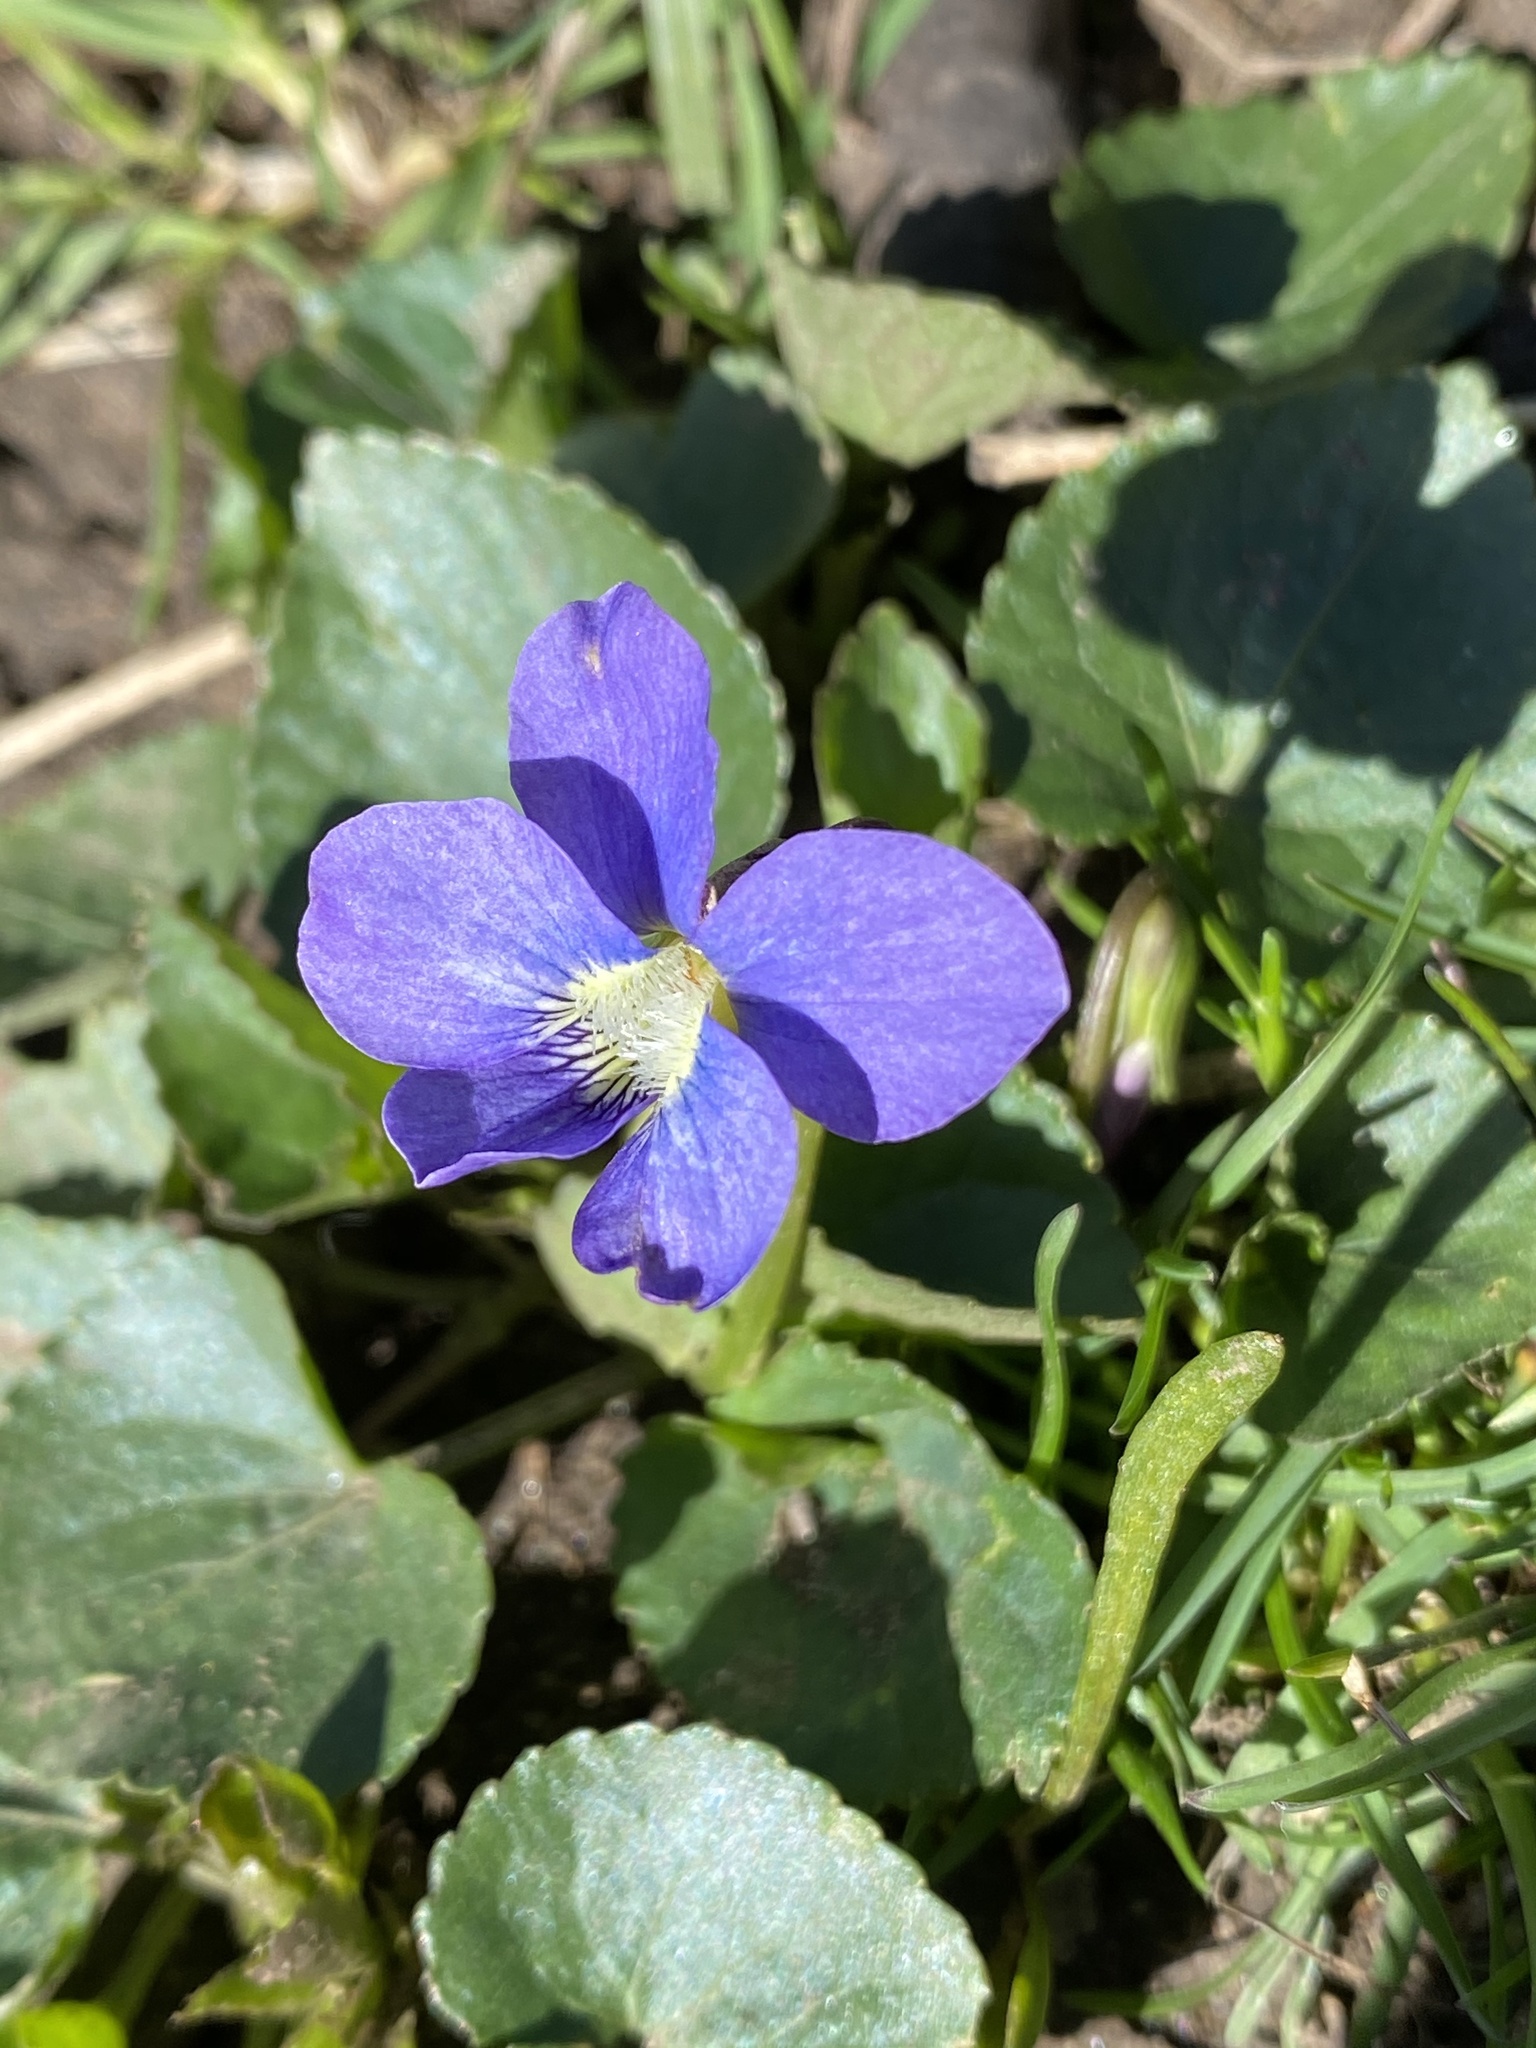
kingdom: Plantae
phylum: Tracheophyta
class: Magnoliopsida
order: Malpighiales
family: Violaceae
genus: Viola
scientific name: Viola sororia
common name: Dooryard violet
